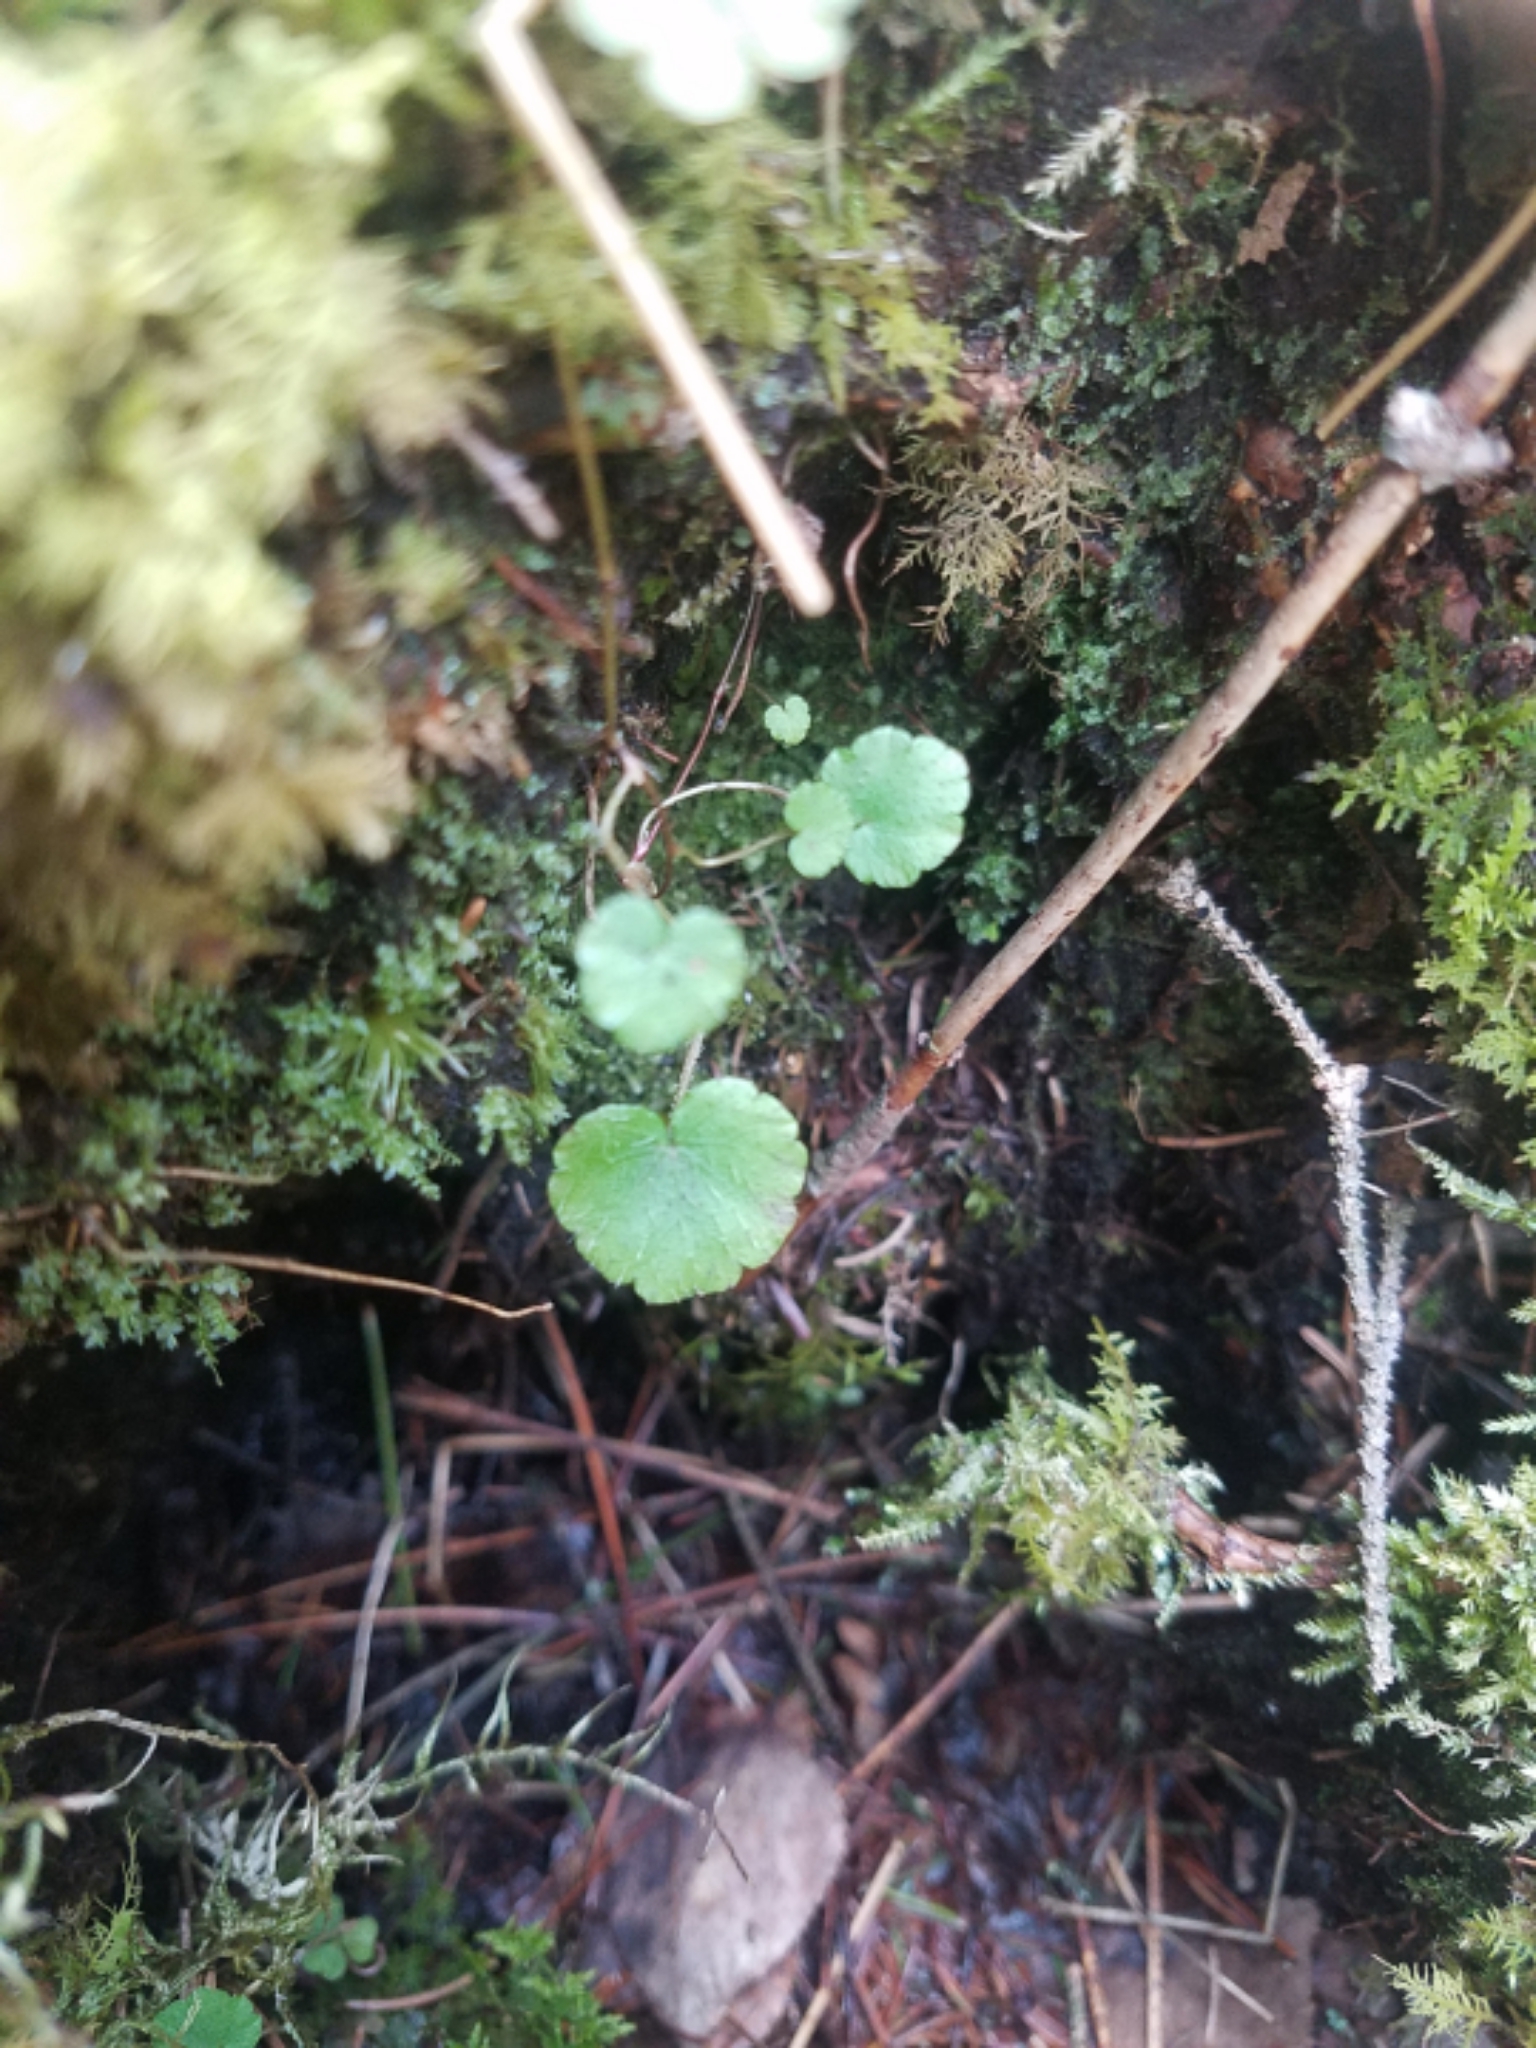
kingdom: Plantae
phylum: Tracheophyta
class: Magnoliopsida
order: Saxifragales
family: Saxifragaceae
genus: Mitella
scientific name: Mitella nuda
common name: Bare-stemmed bishop's-cap
